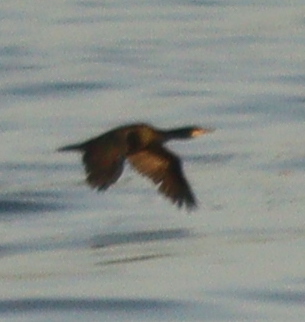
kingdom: Animalia
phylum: Chordata
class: Aves
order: Suliformes
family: Phalacrocoracidae
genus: Phalacrocorax
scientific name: Phalacrocorax aristotelis
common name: European shag
